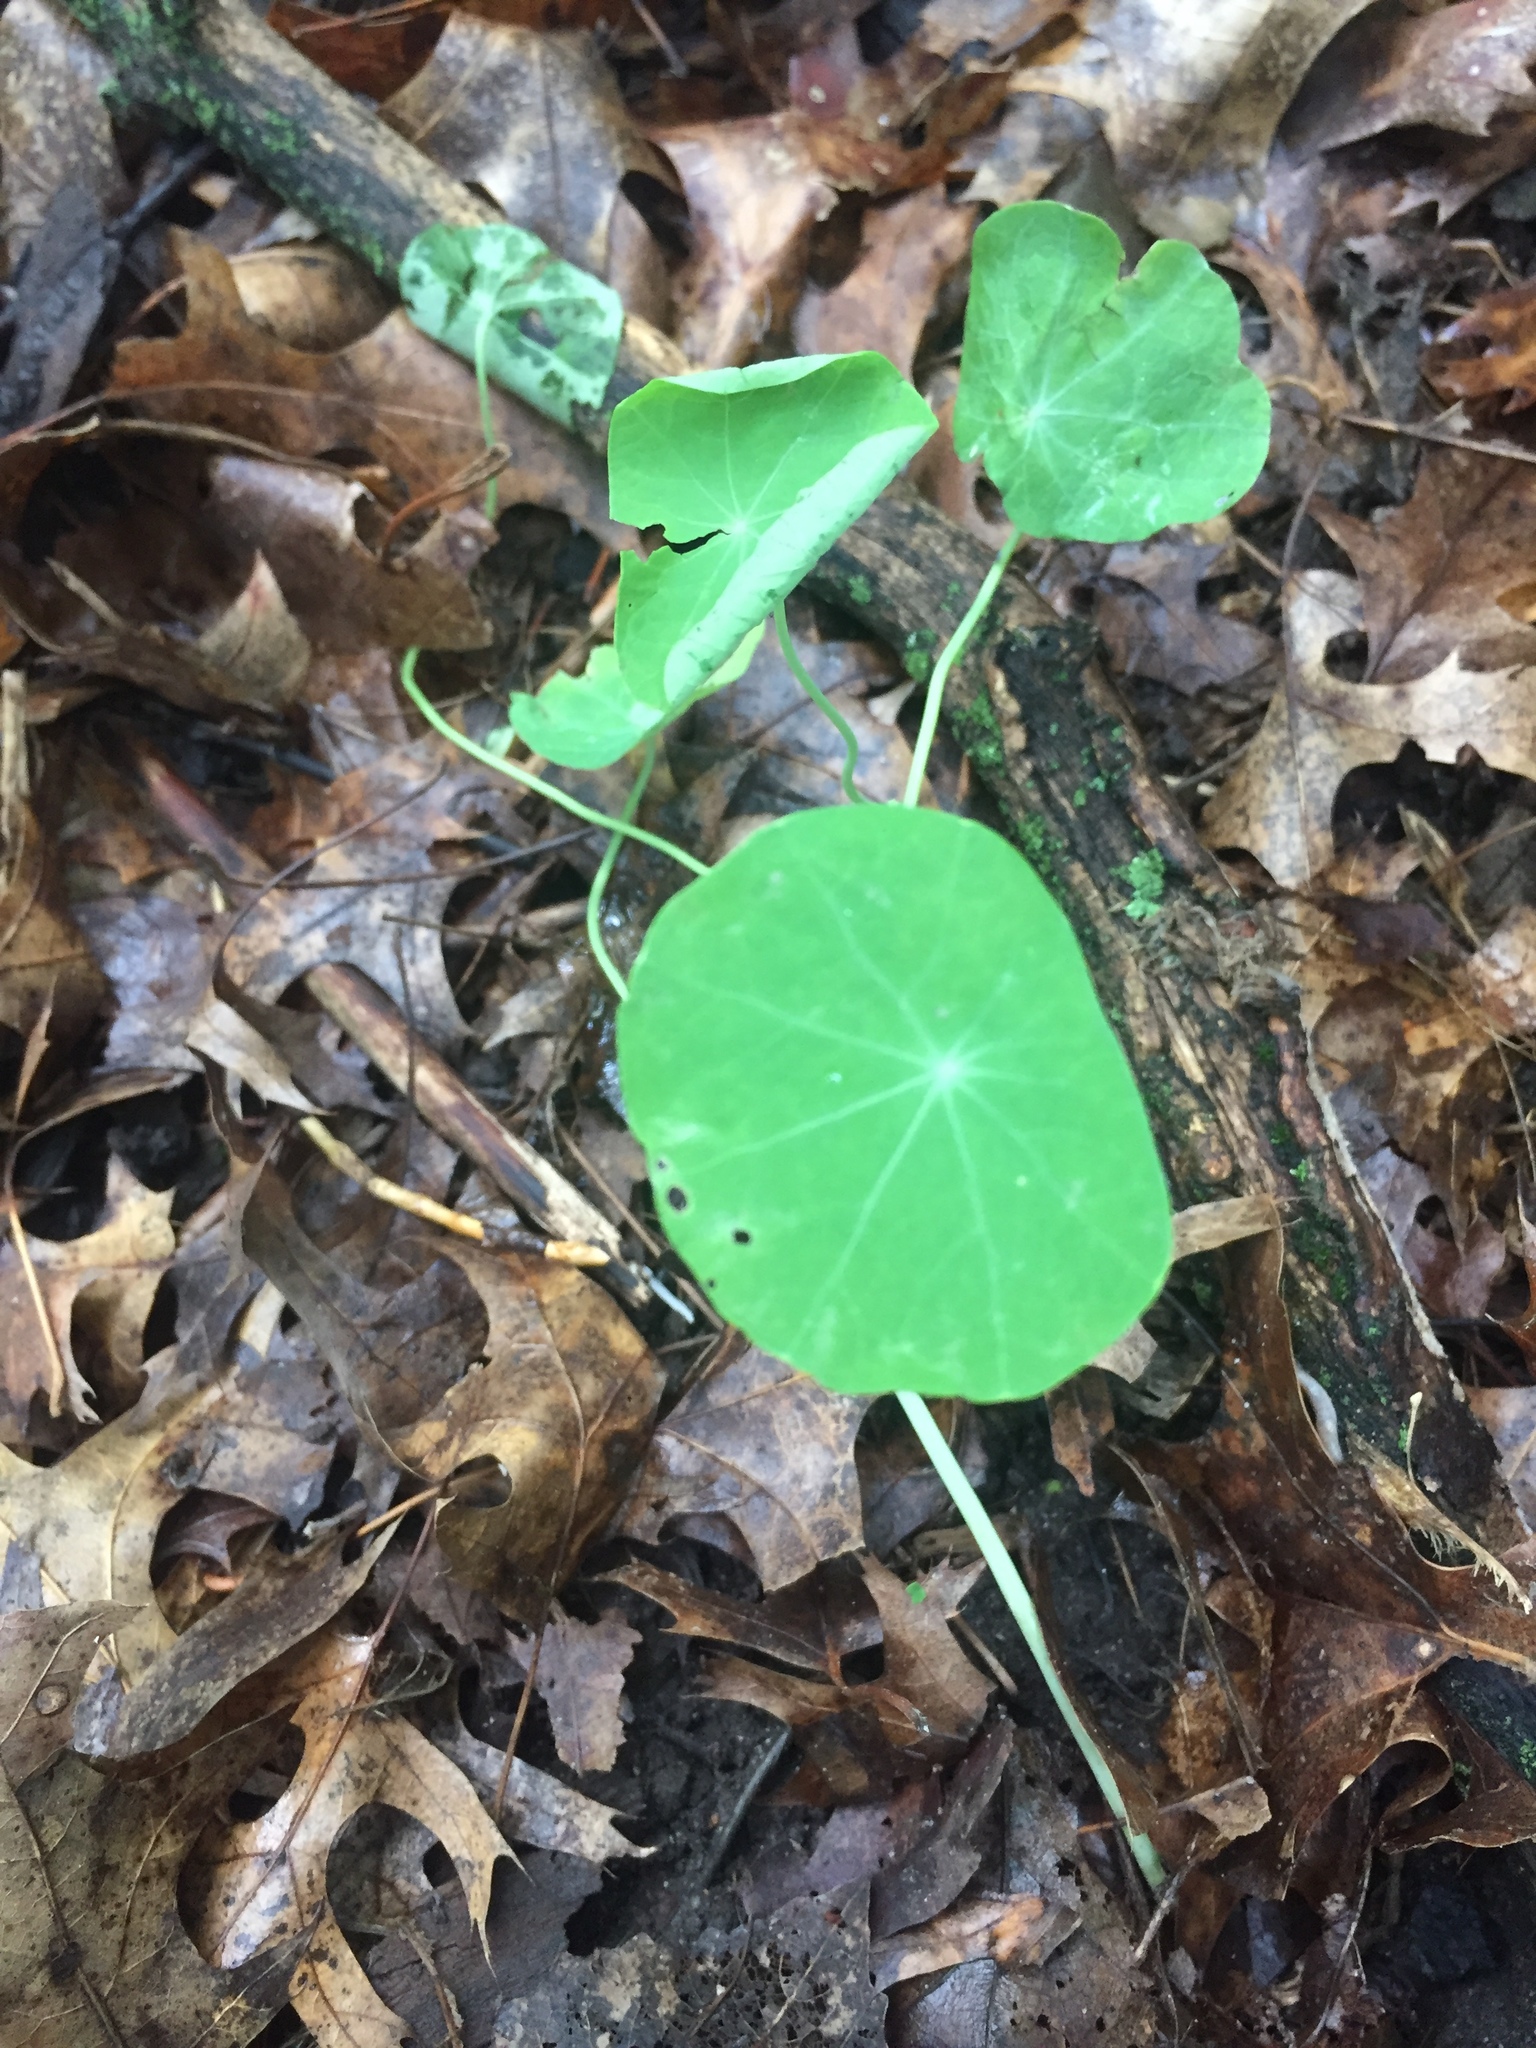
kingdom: Plantae
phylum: Tracheophyta
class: Magnoliopsida
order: Brassicales
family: Tropaeolaceae
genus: Tropaeolum
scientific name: Tropaeolum majus
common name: Nasturtium
